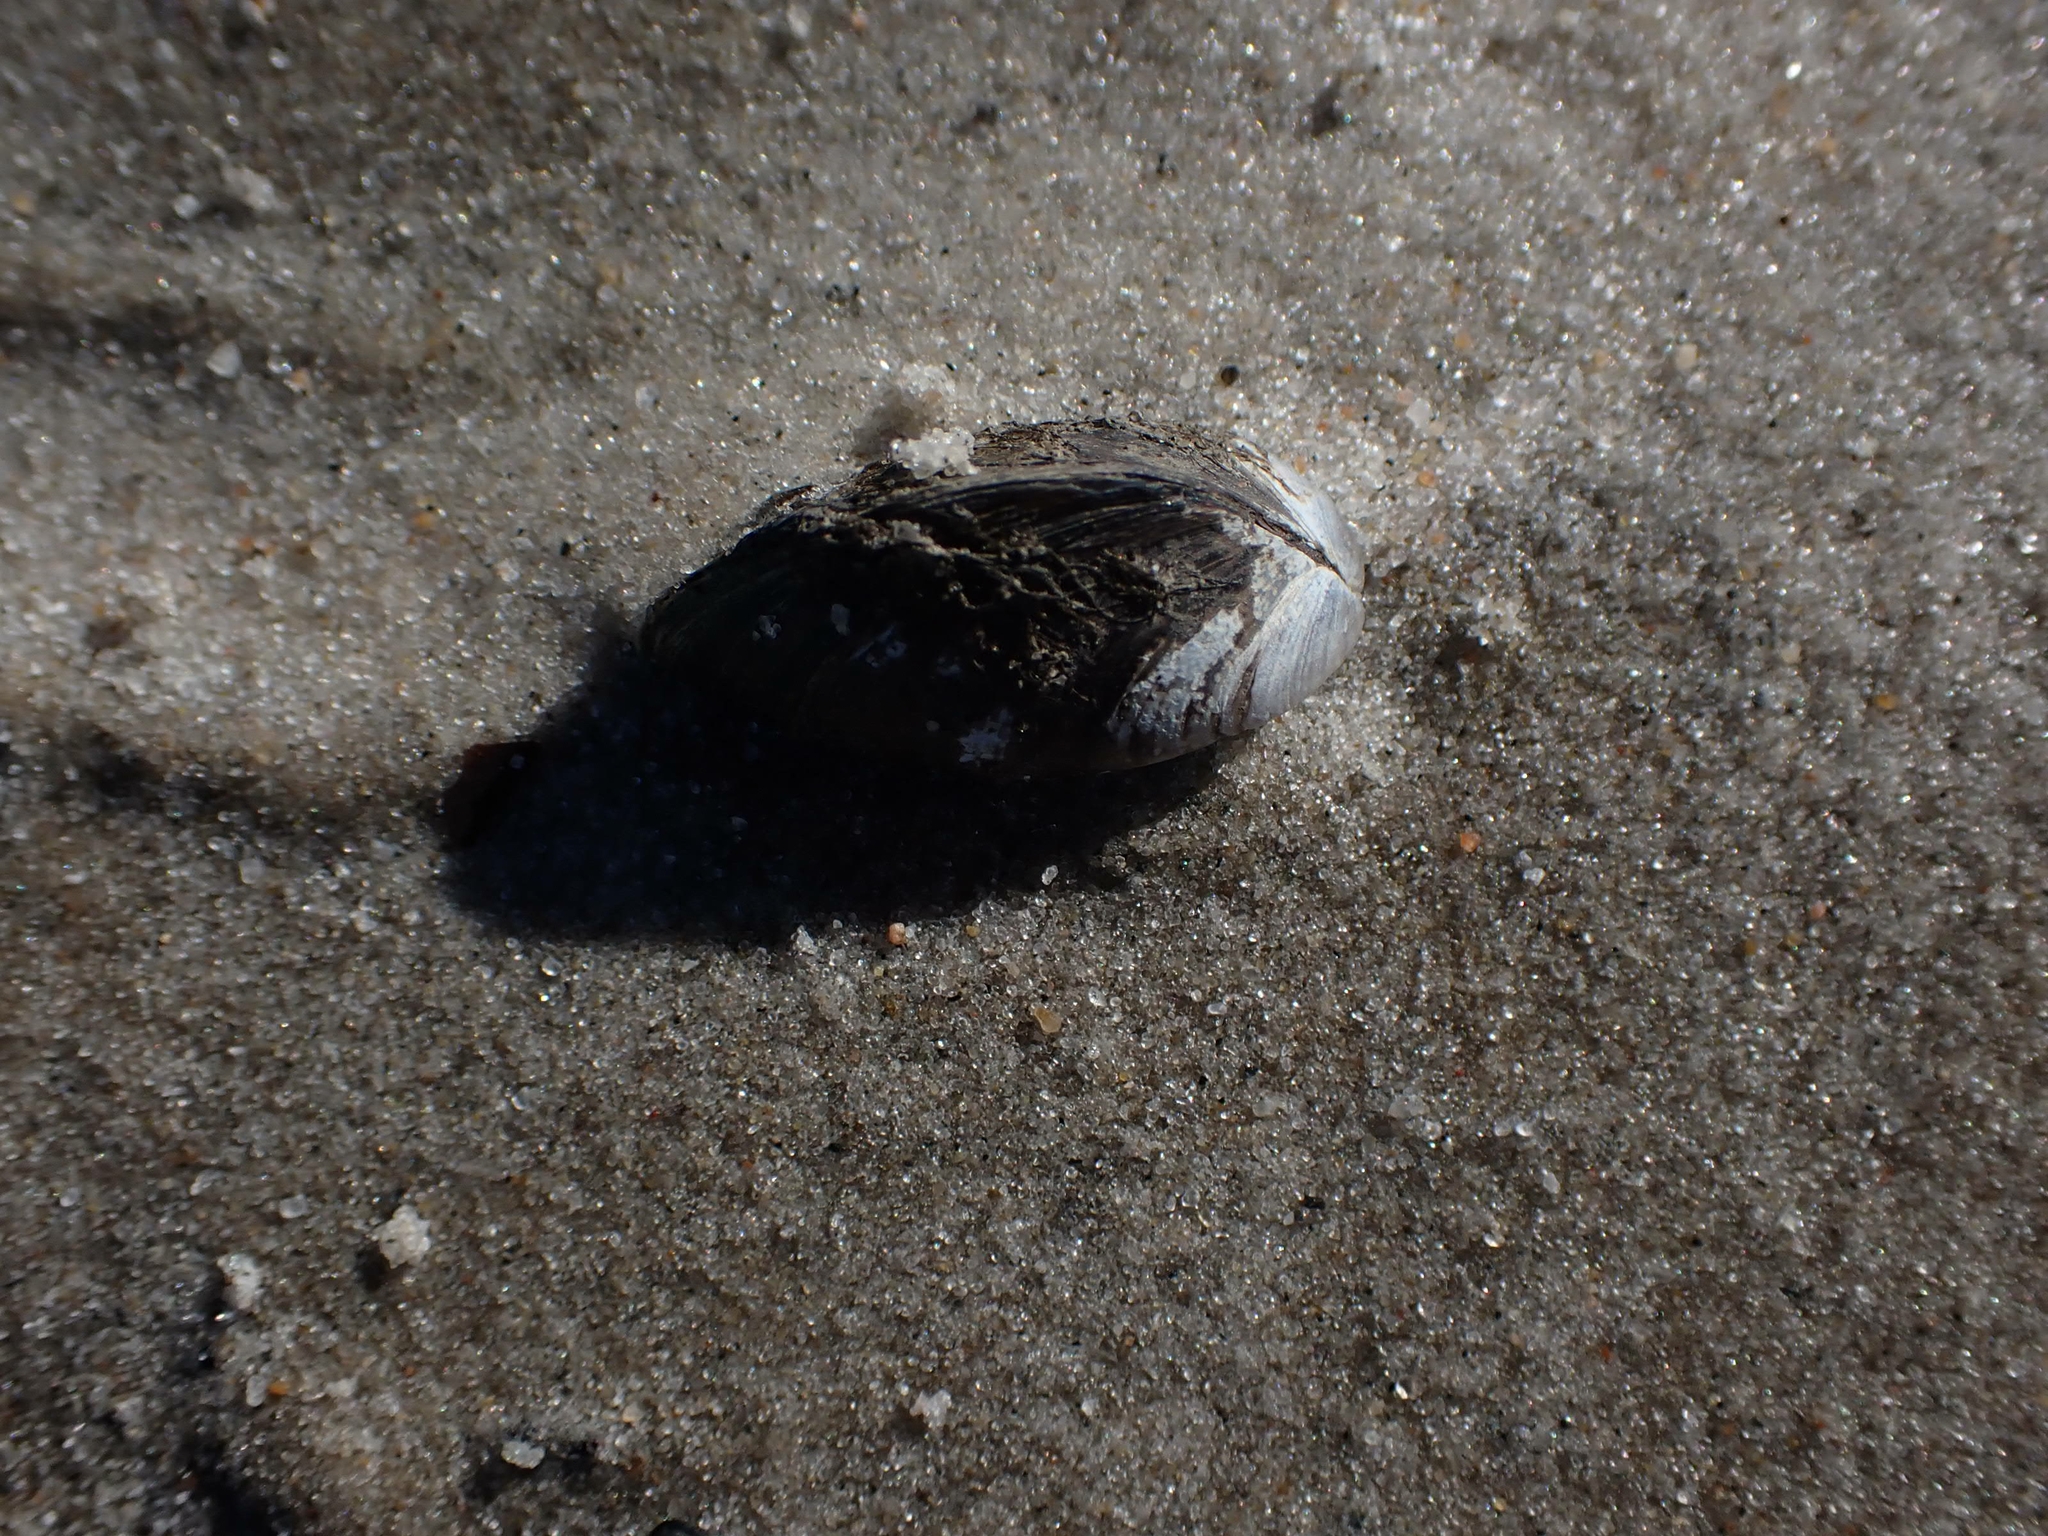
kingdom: Animalia
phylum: Mollusca
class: Bivalvia
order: Myida
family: Dreissenidae
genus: Dreissena
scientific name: Dreissena polymorpha
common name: Zebra mussel
